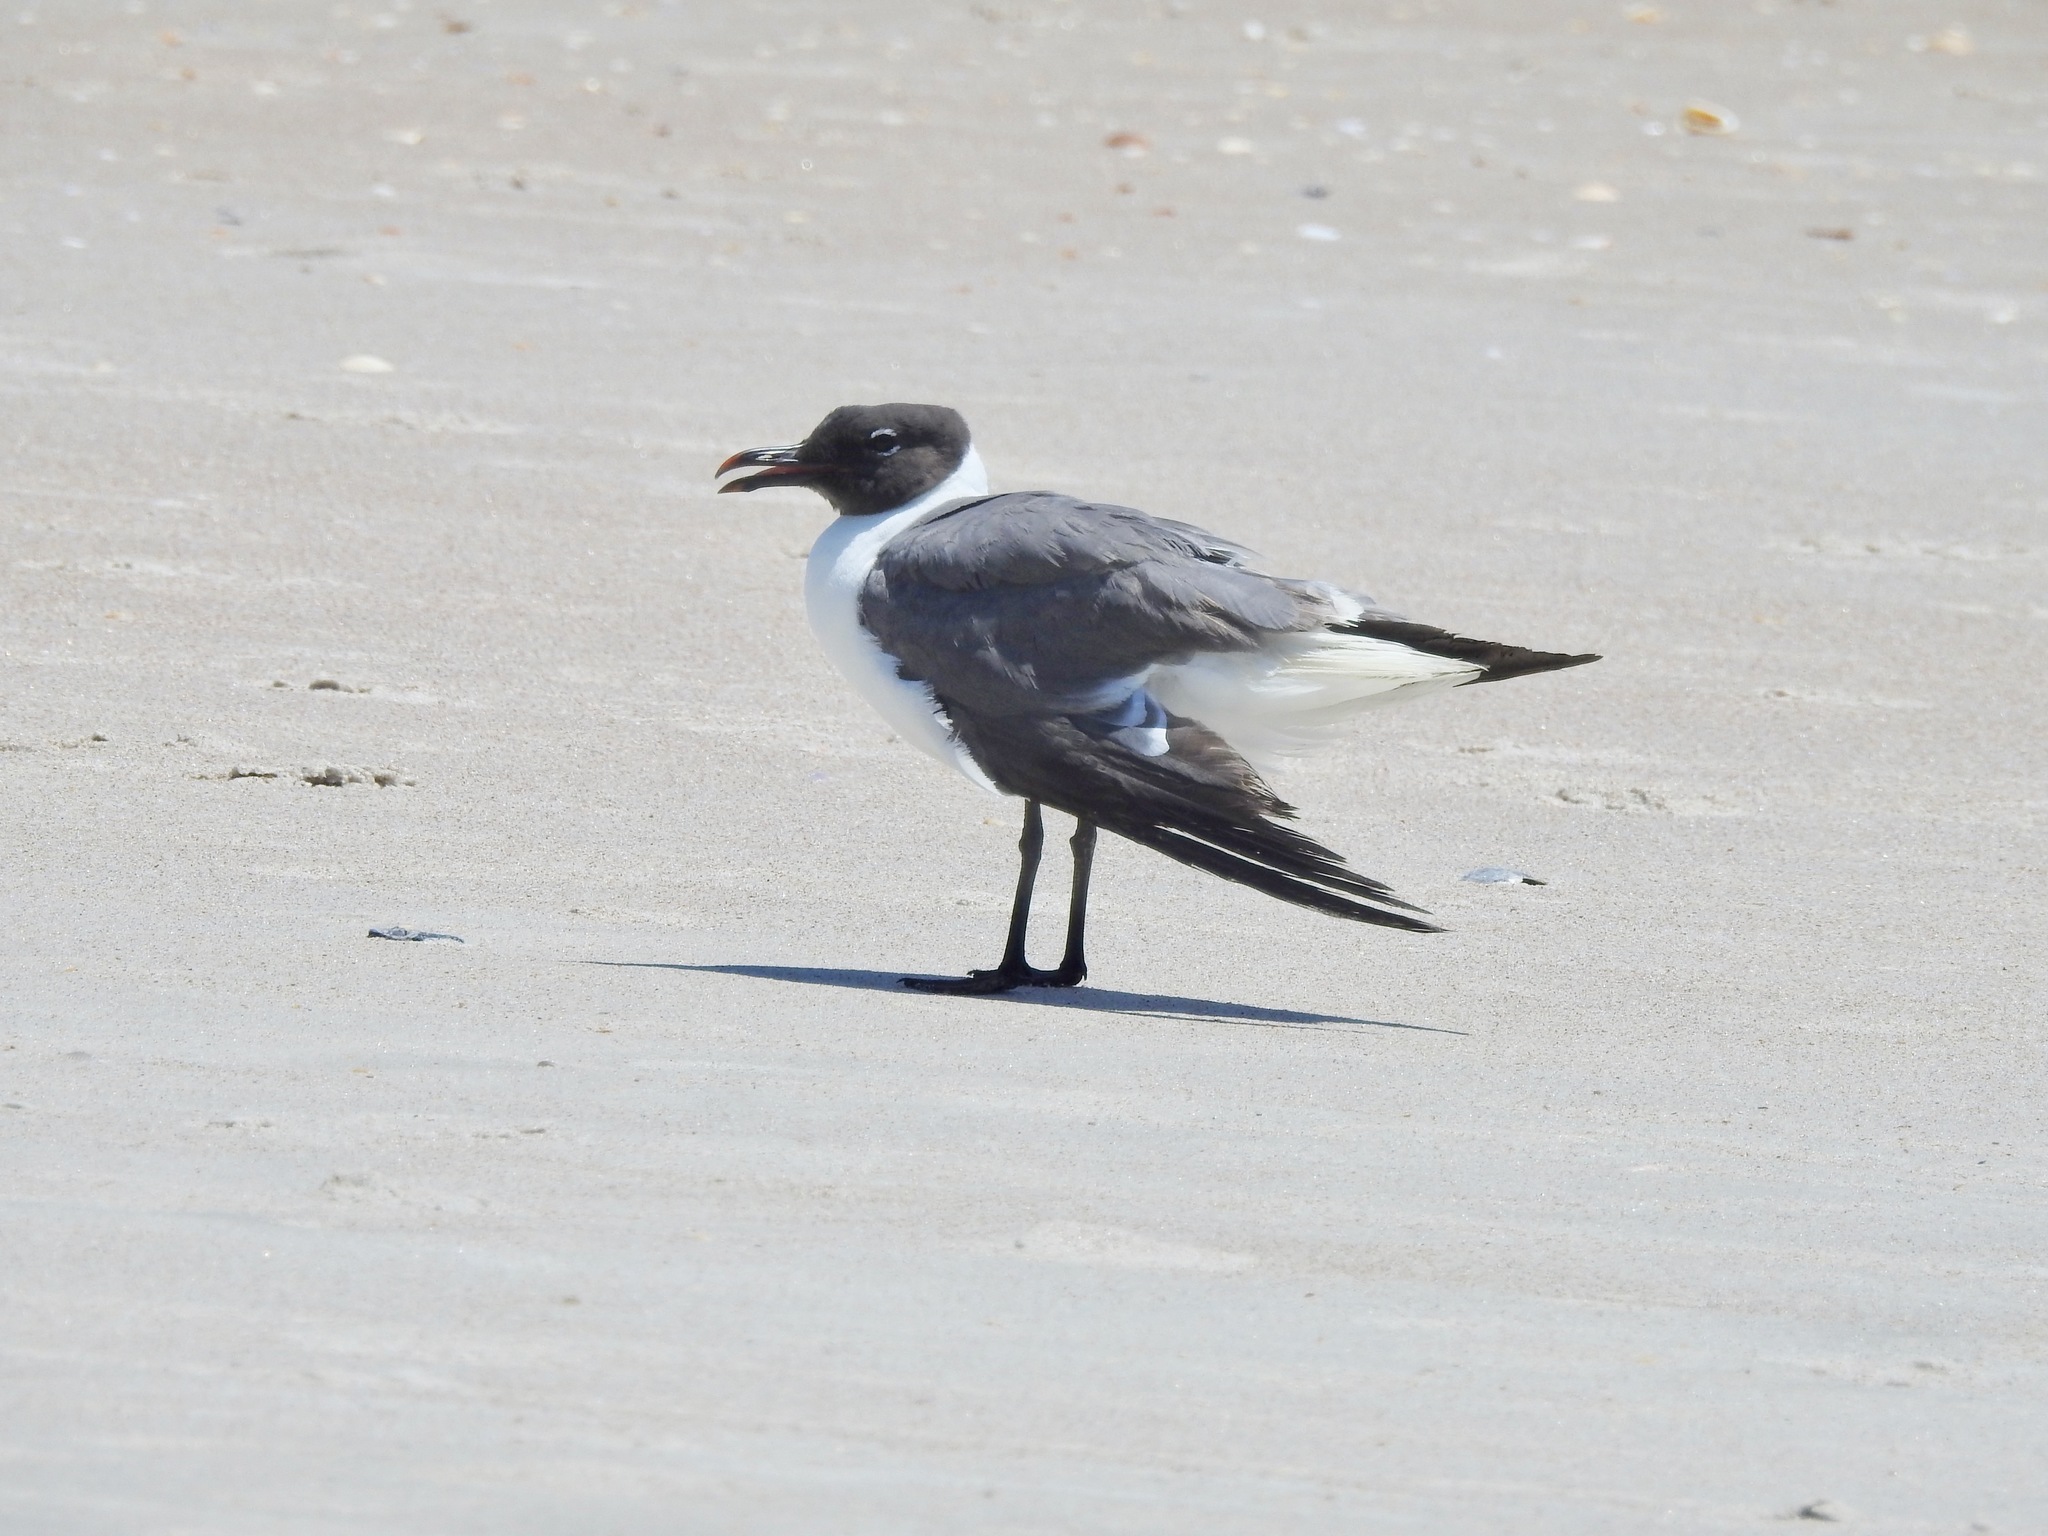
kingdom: Animalia
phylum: Chordata
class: Aves
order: Charadriiformes
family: Laridae
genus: Leucophaeus
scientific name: Leucophaeus atricilla
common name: Laughing gull
